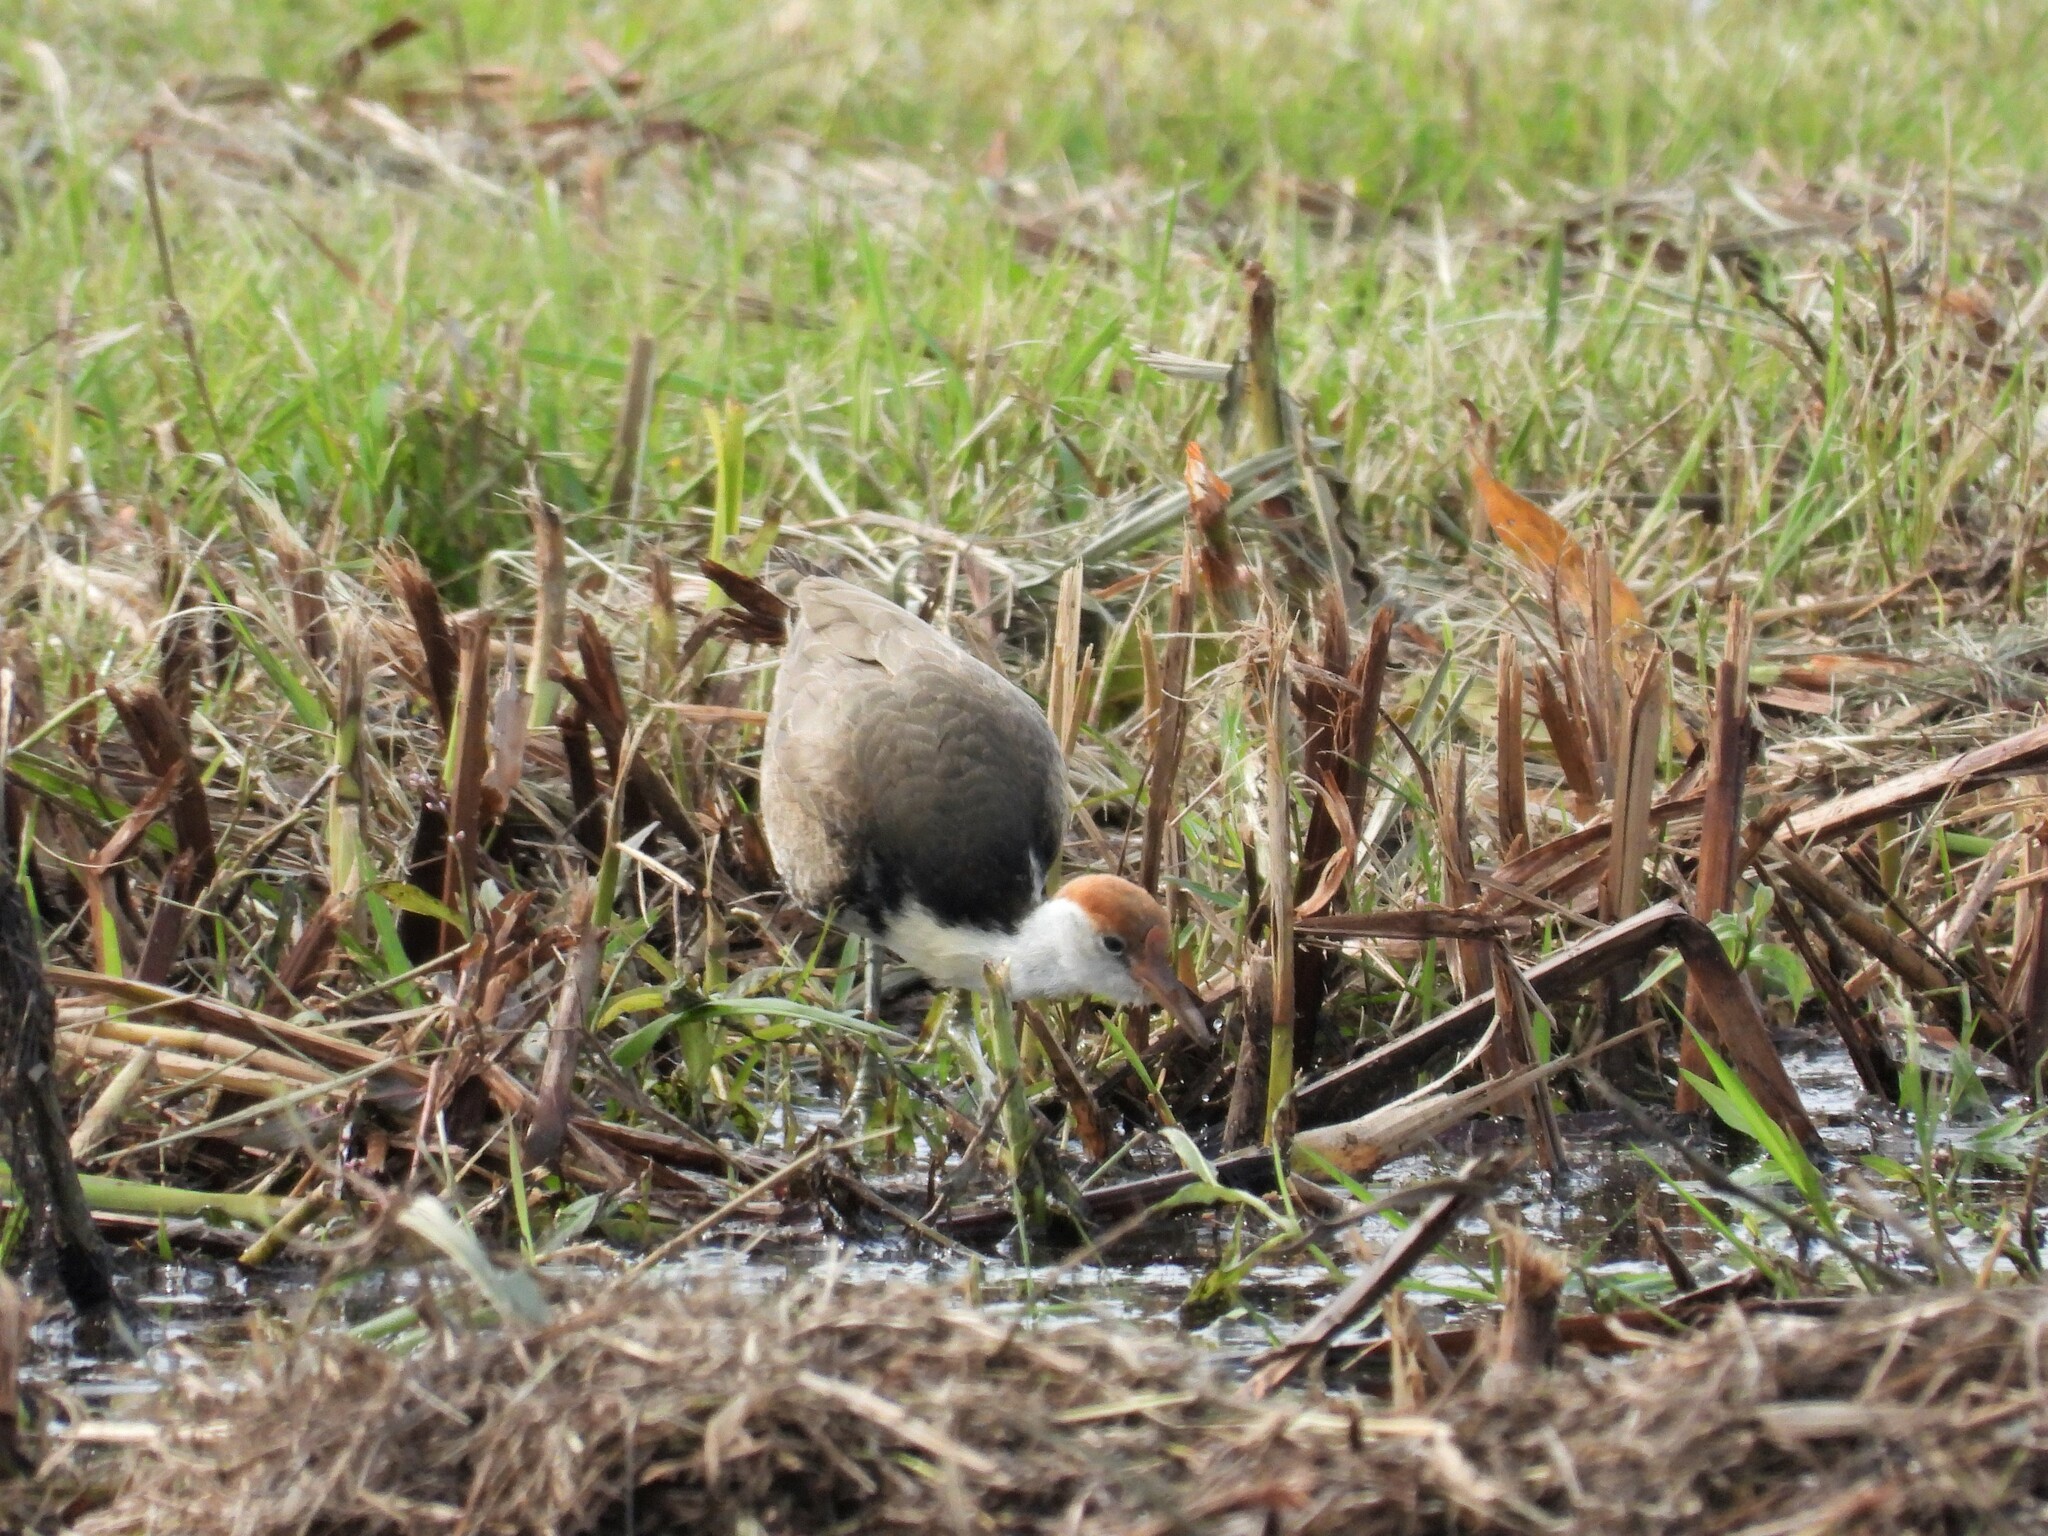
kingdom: Animalia
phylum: Chordata
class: Aves
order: Charadriiformes
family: Jacanidae
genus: Irediparra
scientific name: Irediparra gallinacea
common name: Comb-crested jacana
